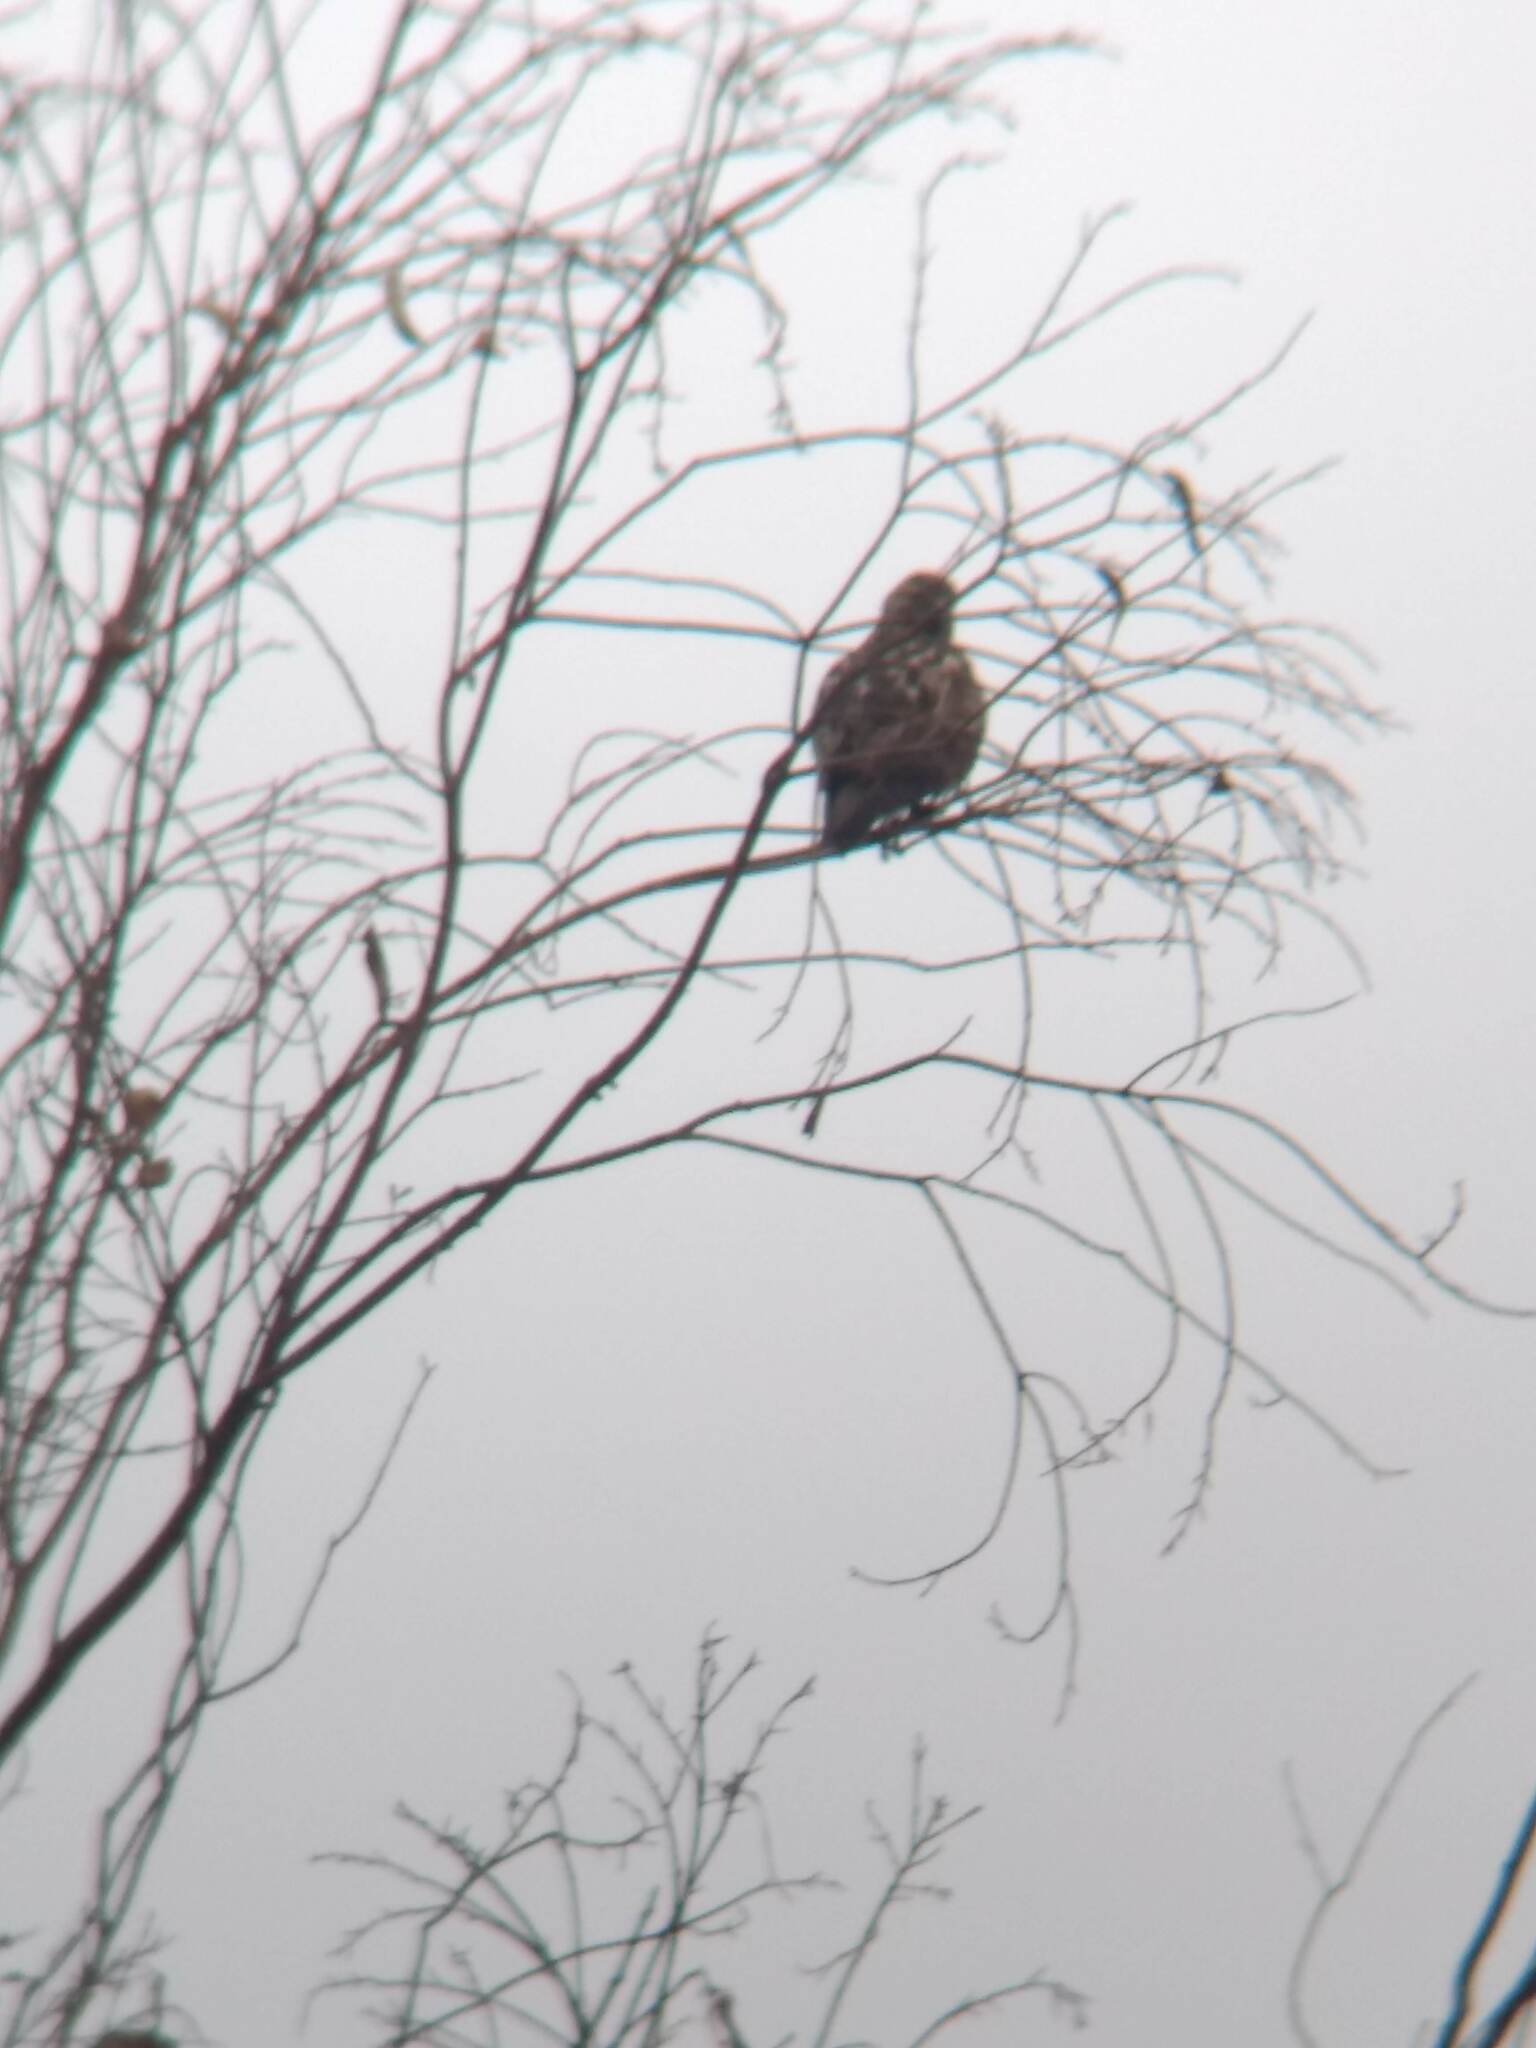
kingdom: Animalia
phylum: Chordata
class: Aves
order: Accipitriformes
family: Accipitridae
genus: Buteo
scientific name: Buteo jamaicensis
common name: Red-tailed hawk
